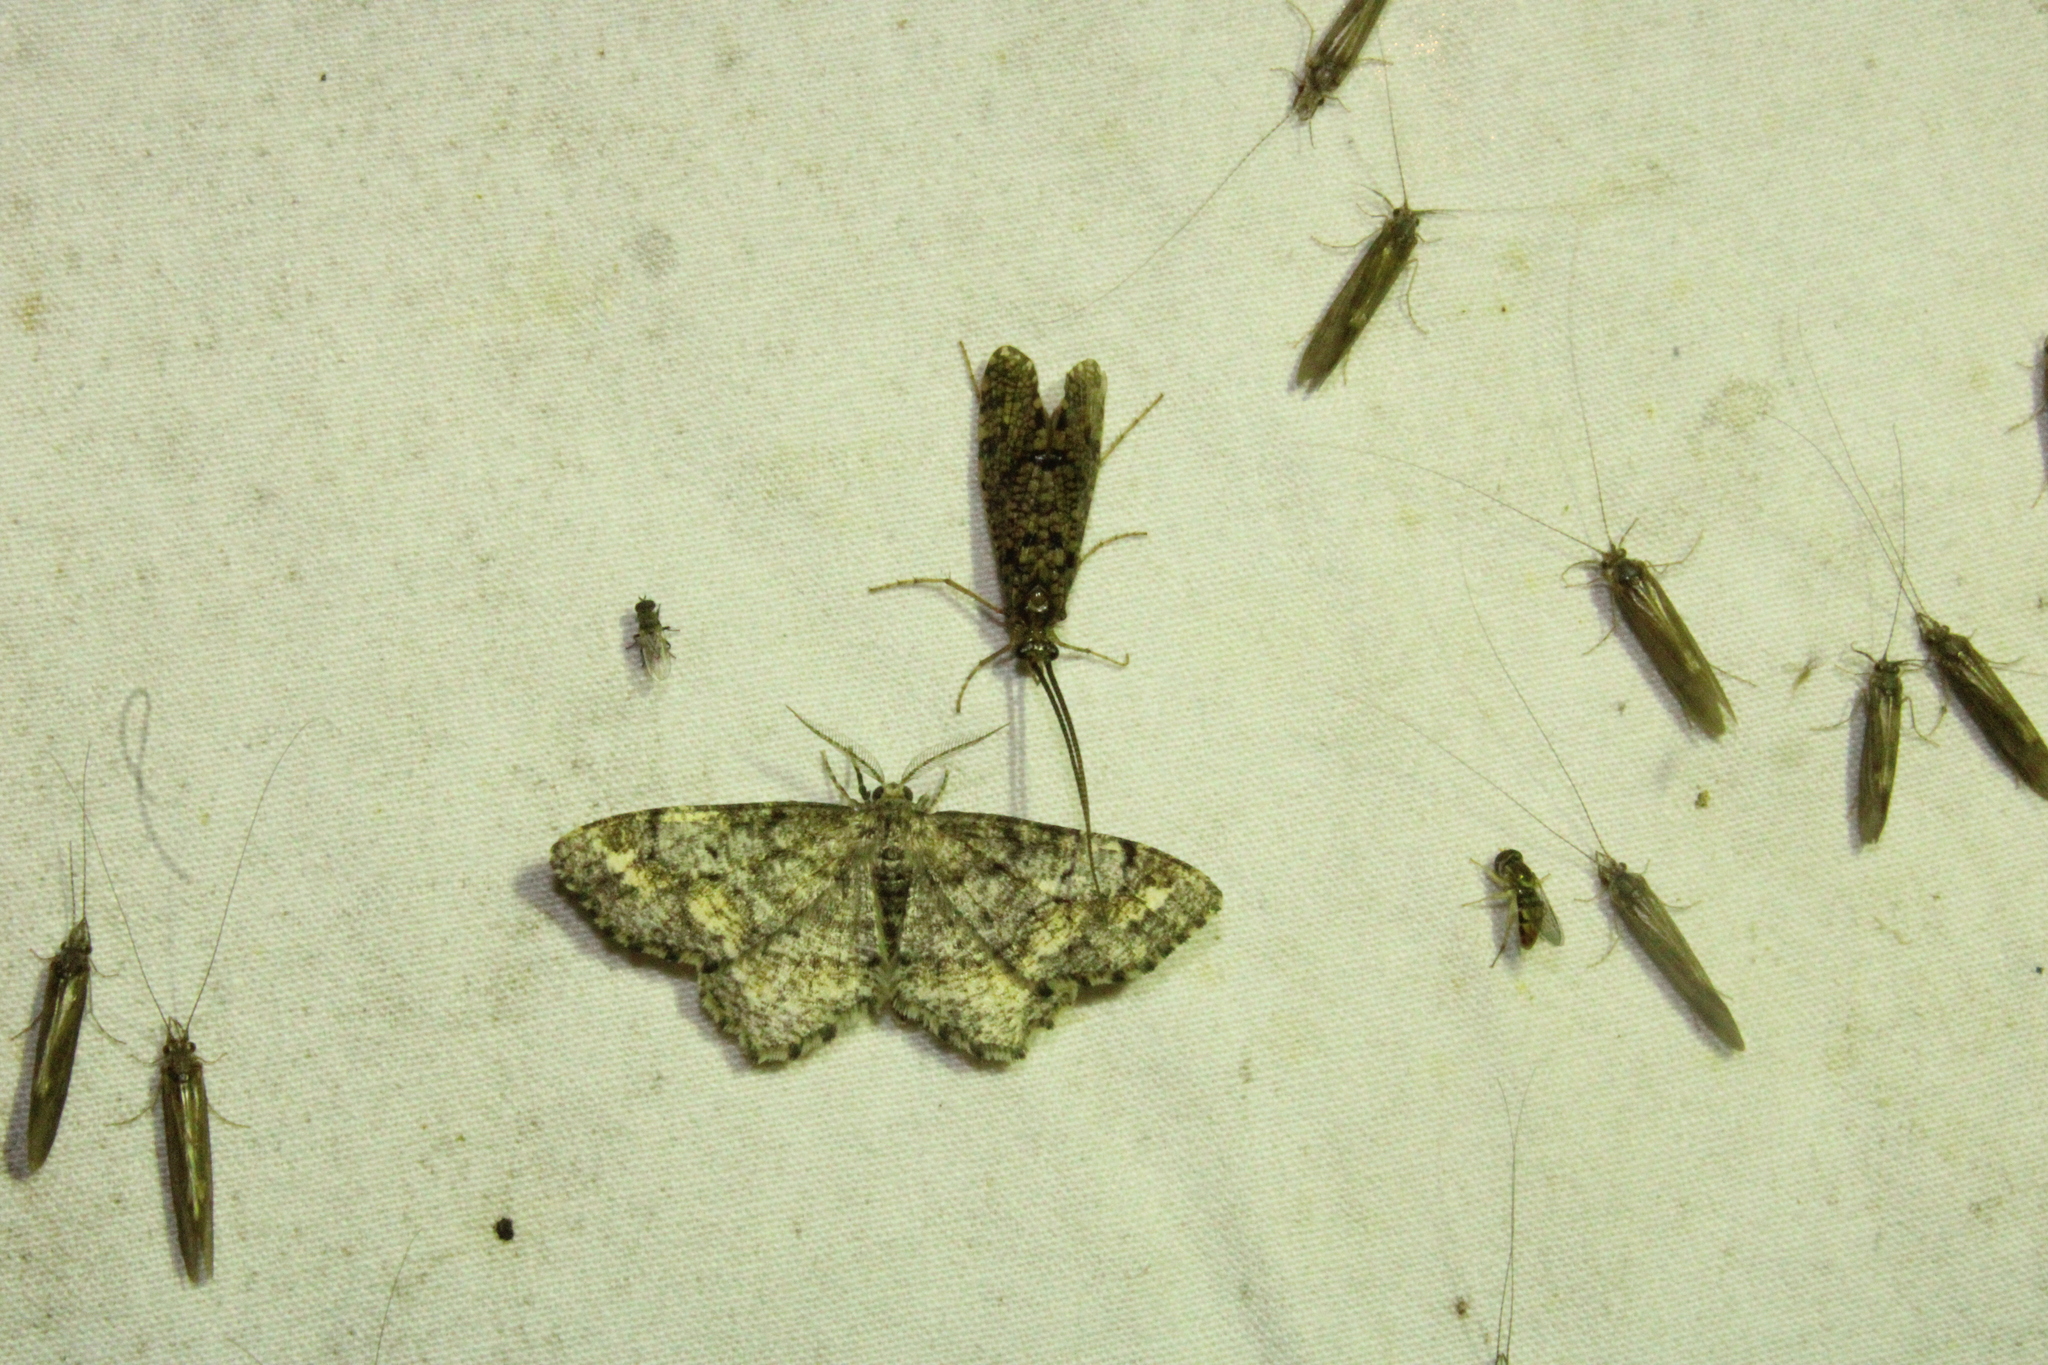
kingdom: Animalia
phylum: Arthropoda
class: Insecta
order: Lepidoptera
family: Geometridae
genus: Hypagyrtis
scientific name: Hypagyrtis unipunctata
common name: One-spotted variant
